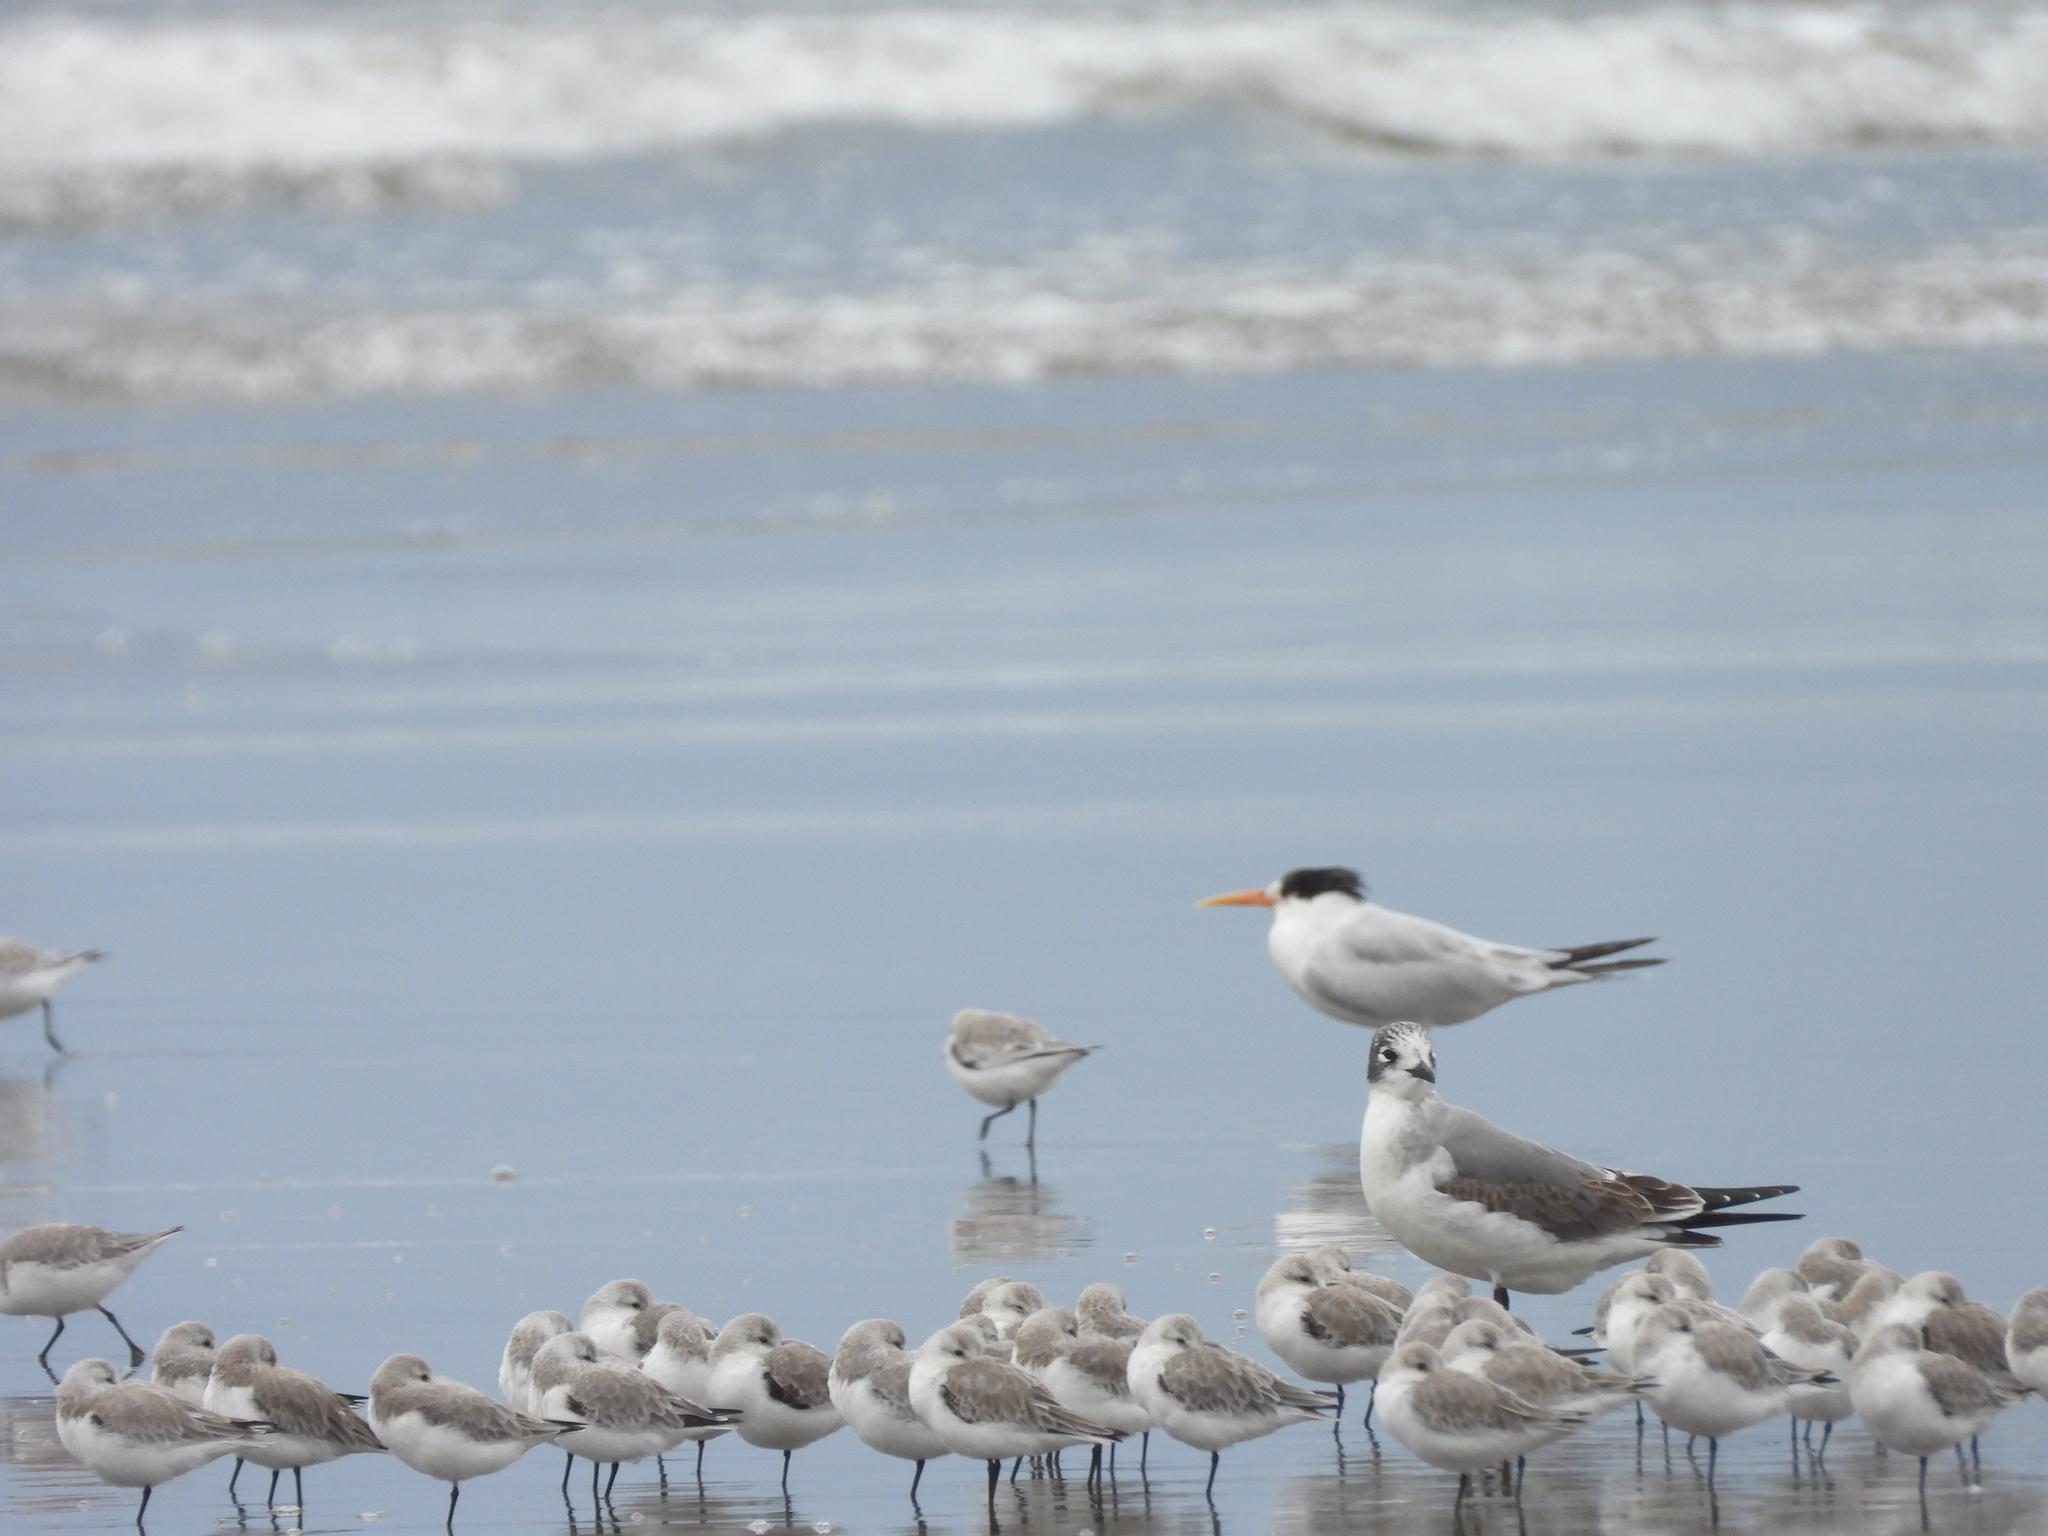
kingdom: Animalia
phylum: Chordata
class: Aves
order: Charadriiformes
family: Laridae
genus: Thalasseus
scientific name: Thalasseus elegans
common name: Elegant tern
